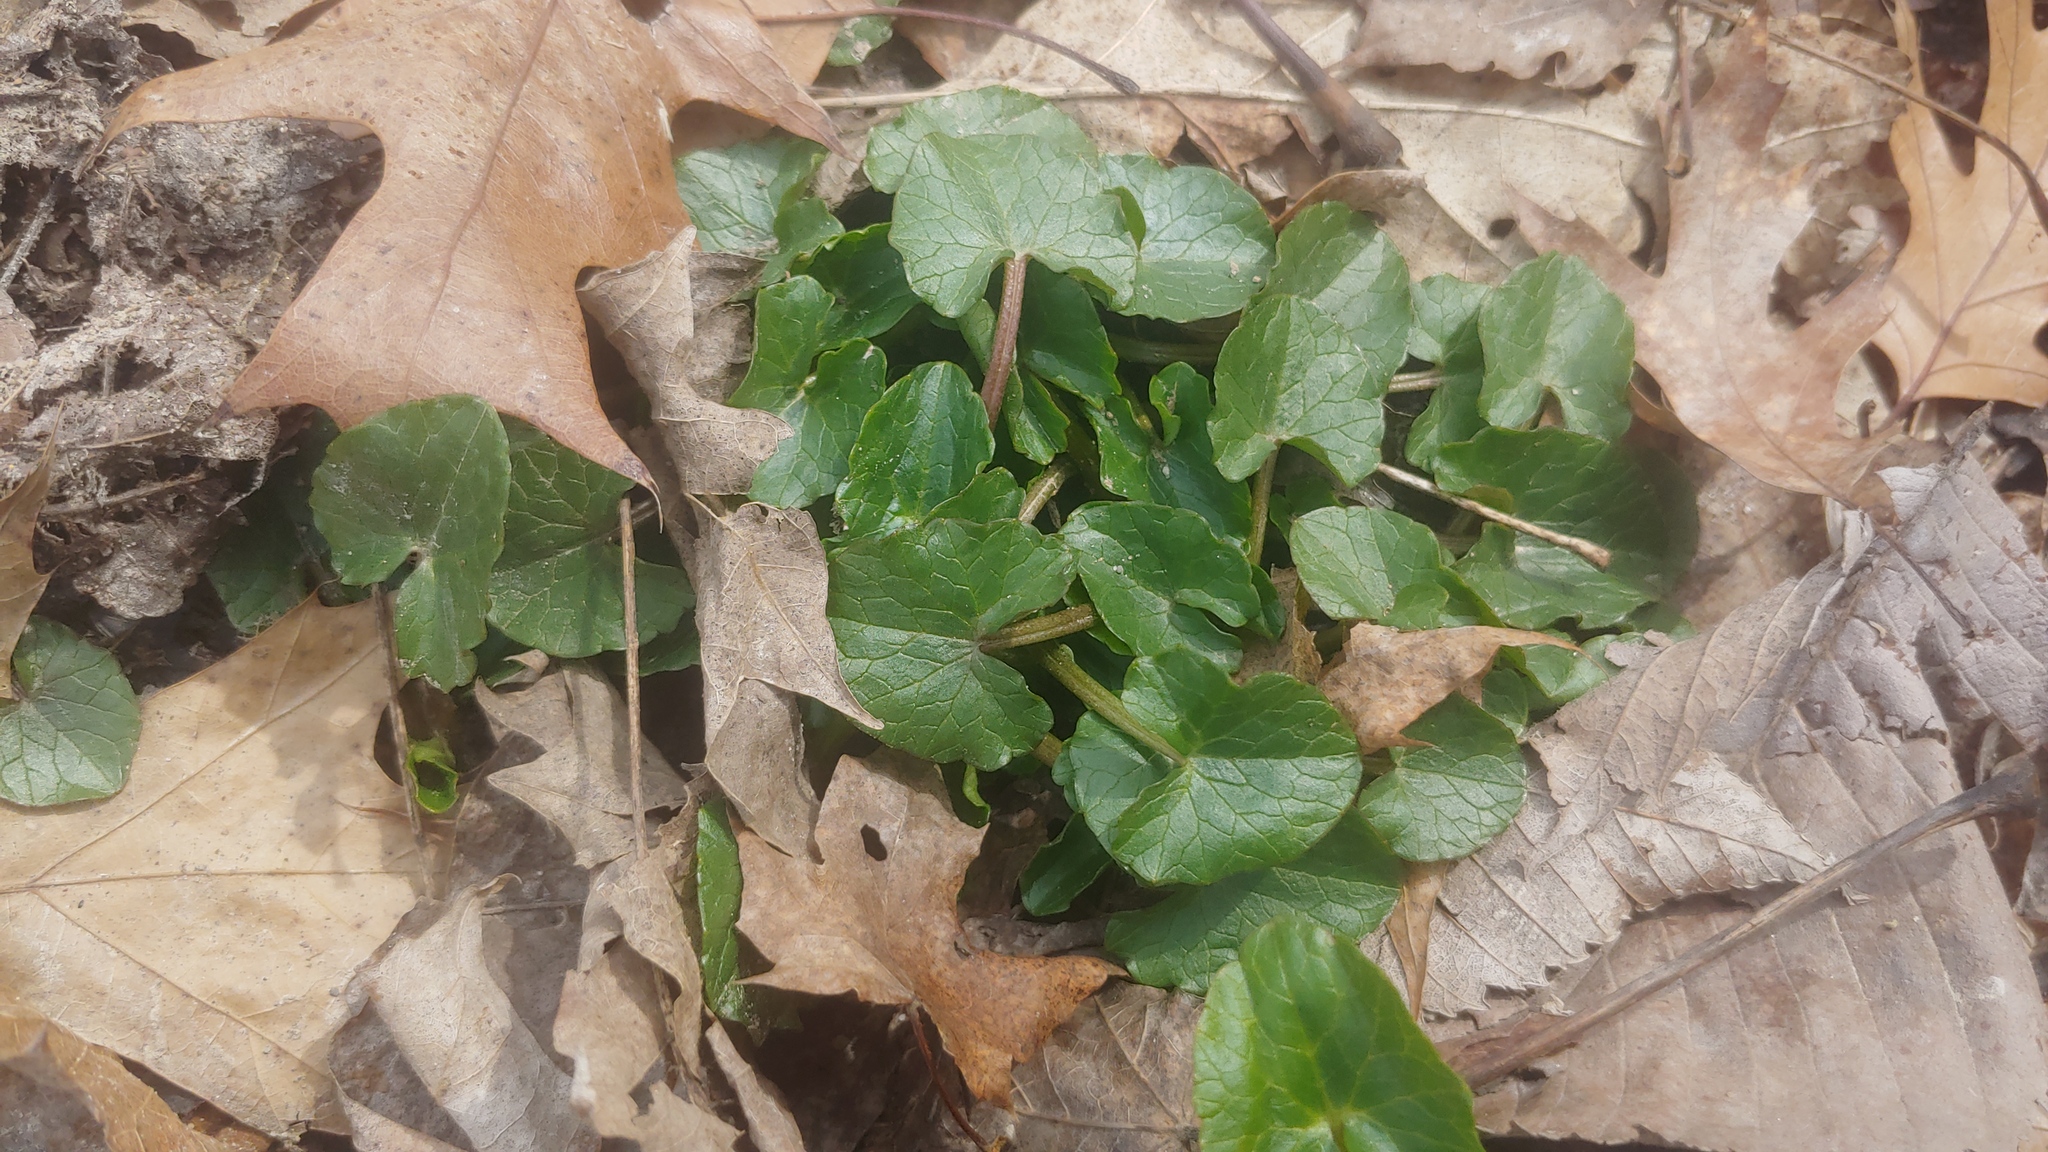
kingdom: Plantae
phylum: Tracheophyta
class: Magnoliopsida
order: Ranunculales
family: Ranunculaceae
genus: Ficaria
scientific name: Ficaria verna
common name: Lesser celandine
